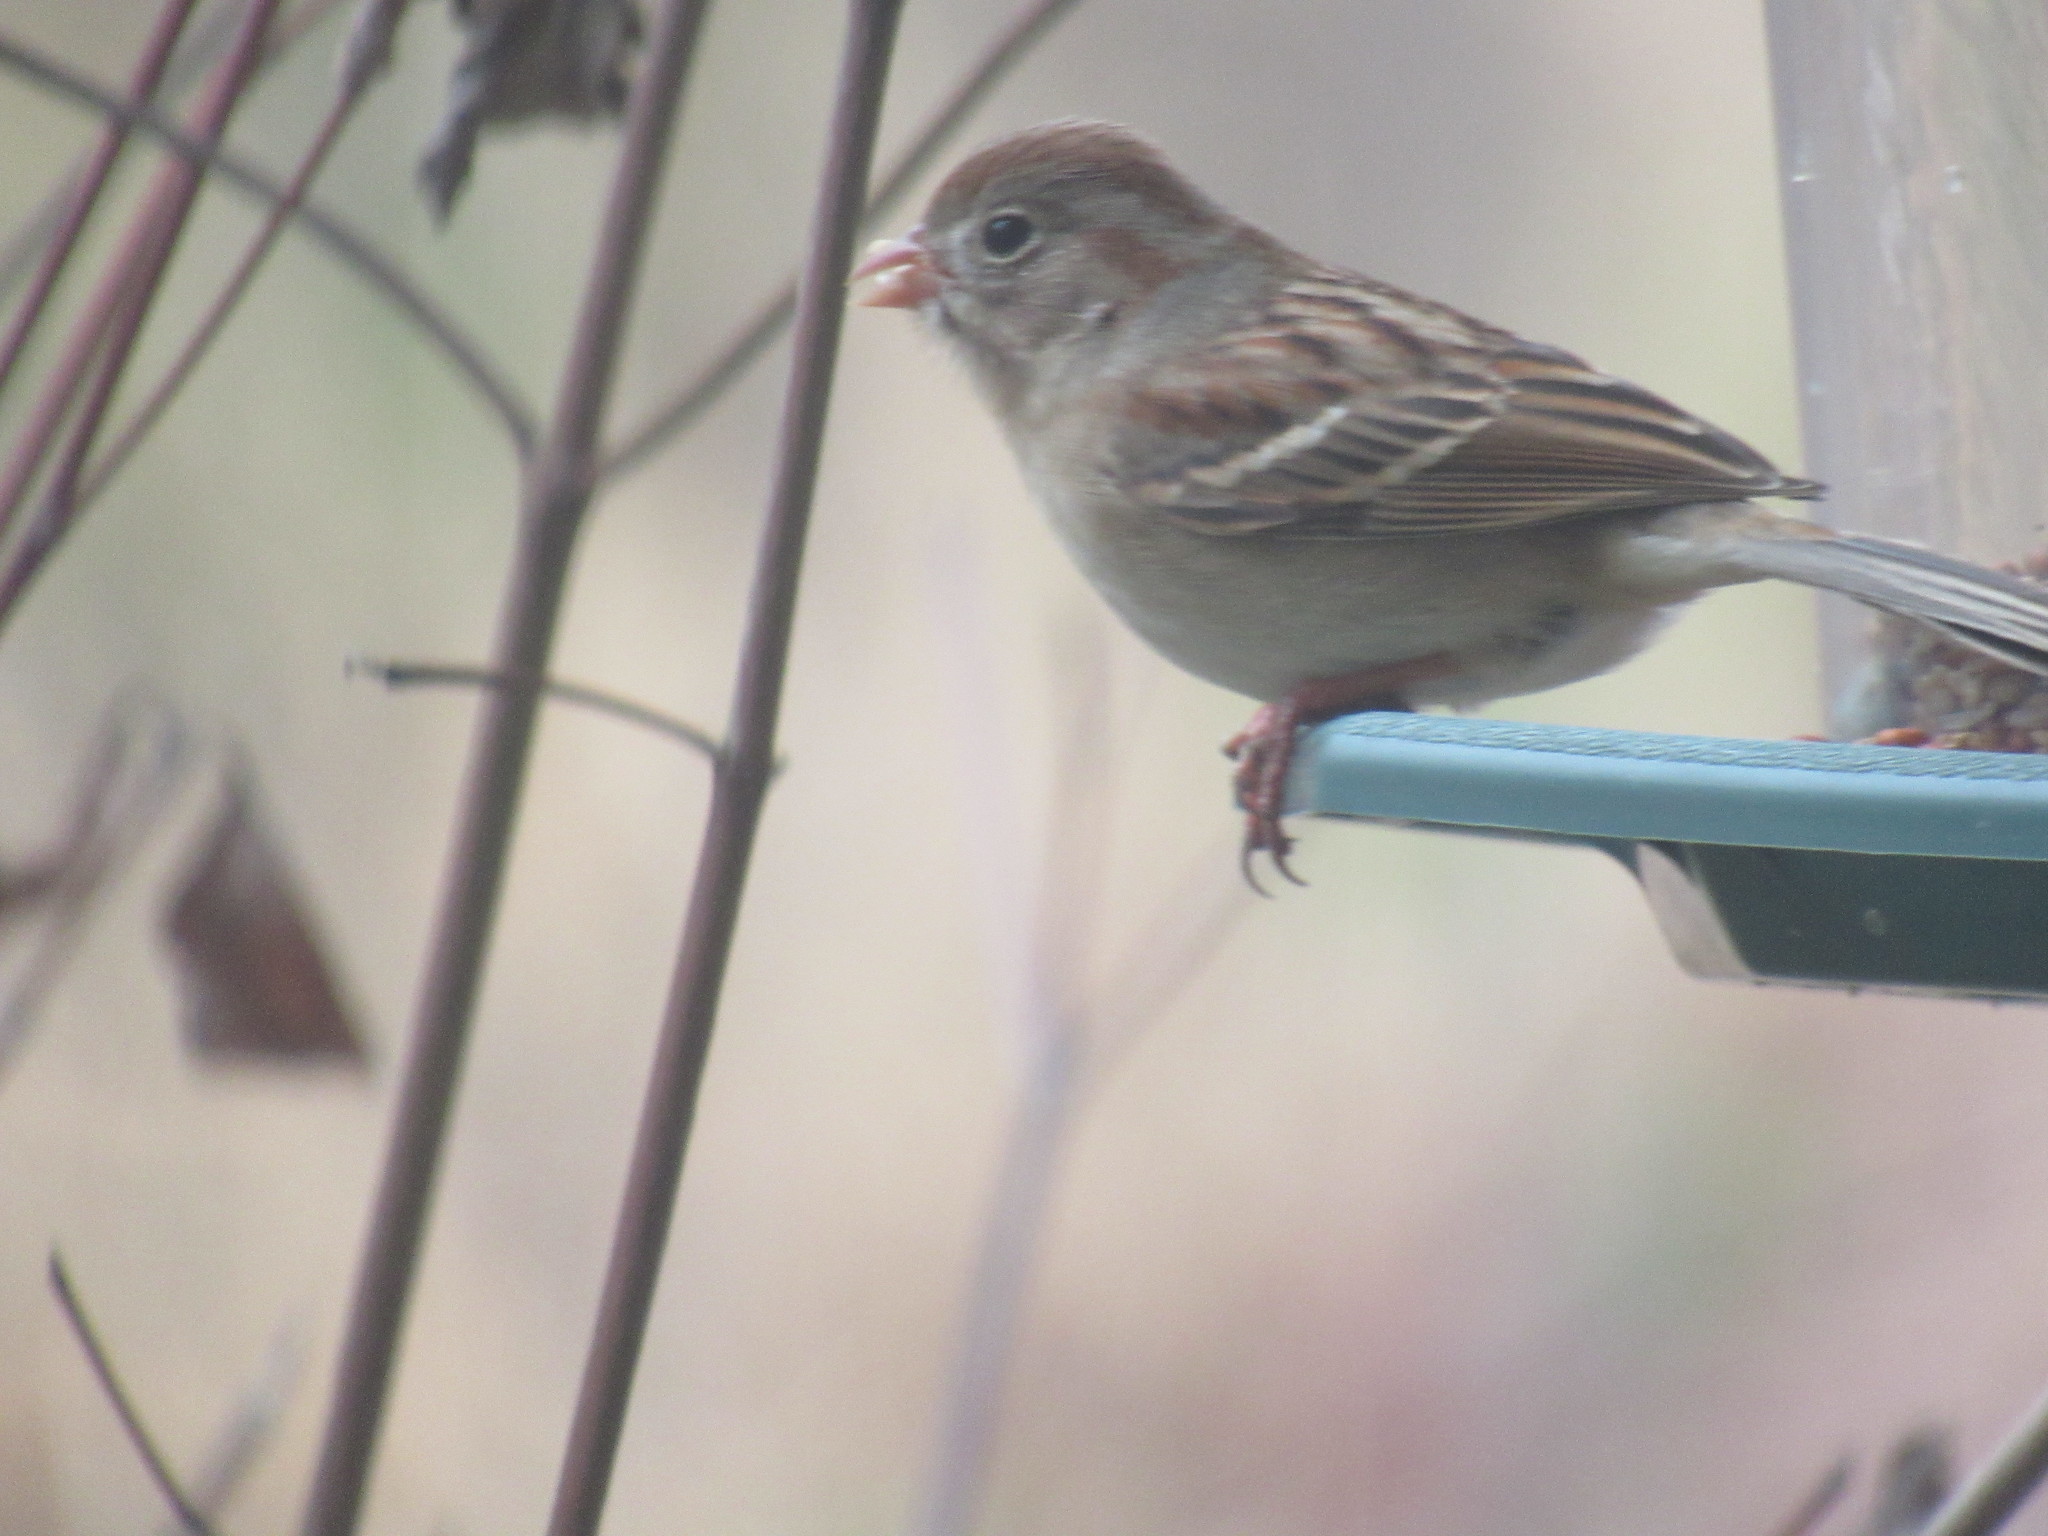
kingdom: Animalia
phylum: Chordata
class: Aves
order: Passeriformes
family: Passerellidae
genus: Spizella
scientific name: Spizella pusilla
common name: Field sparrow
